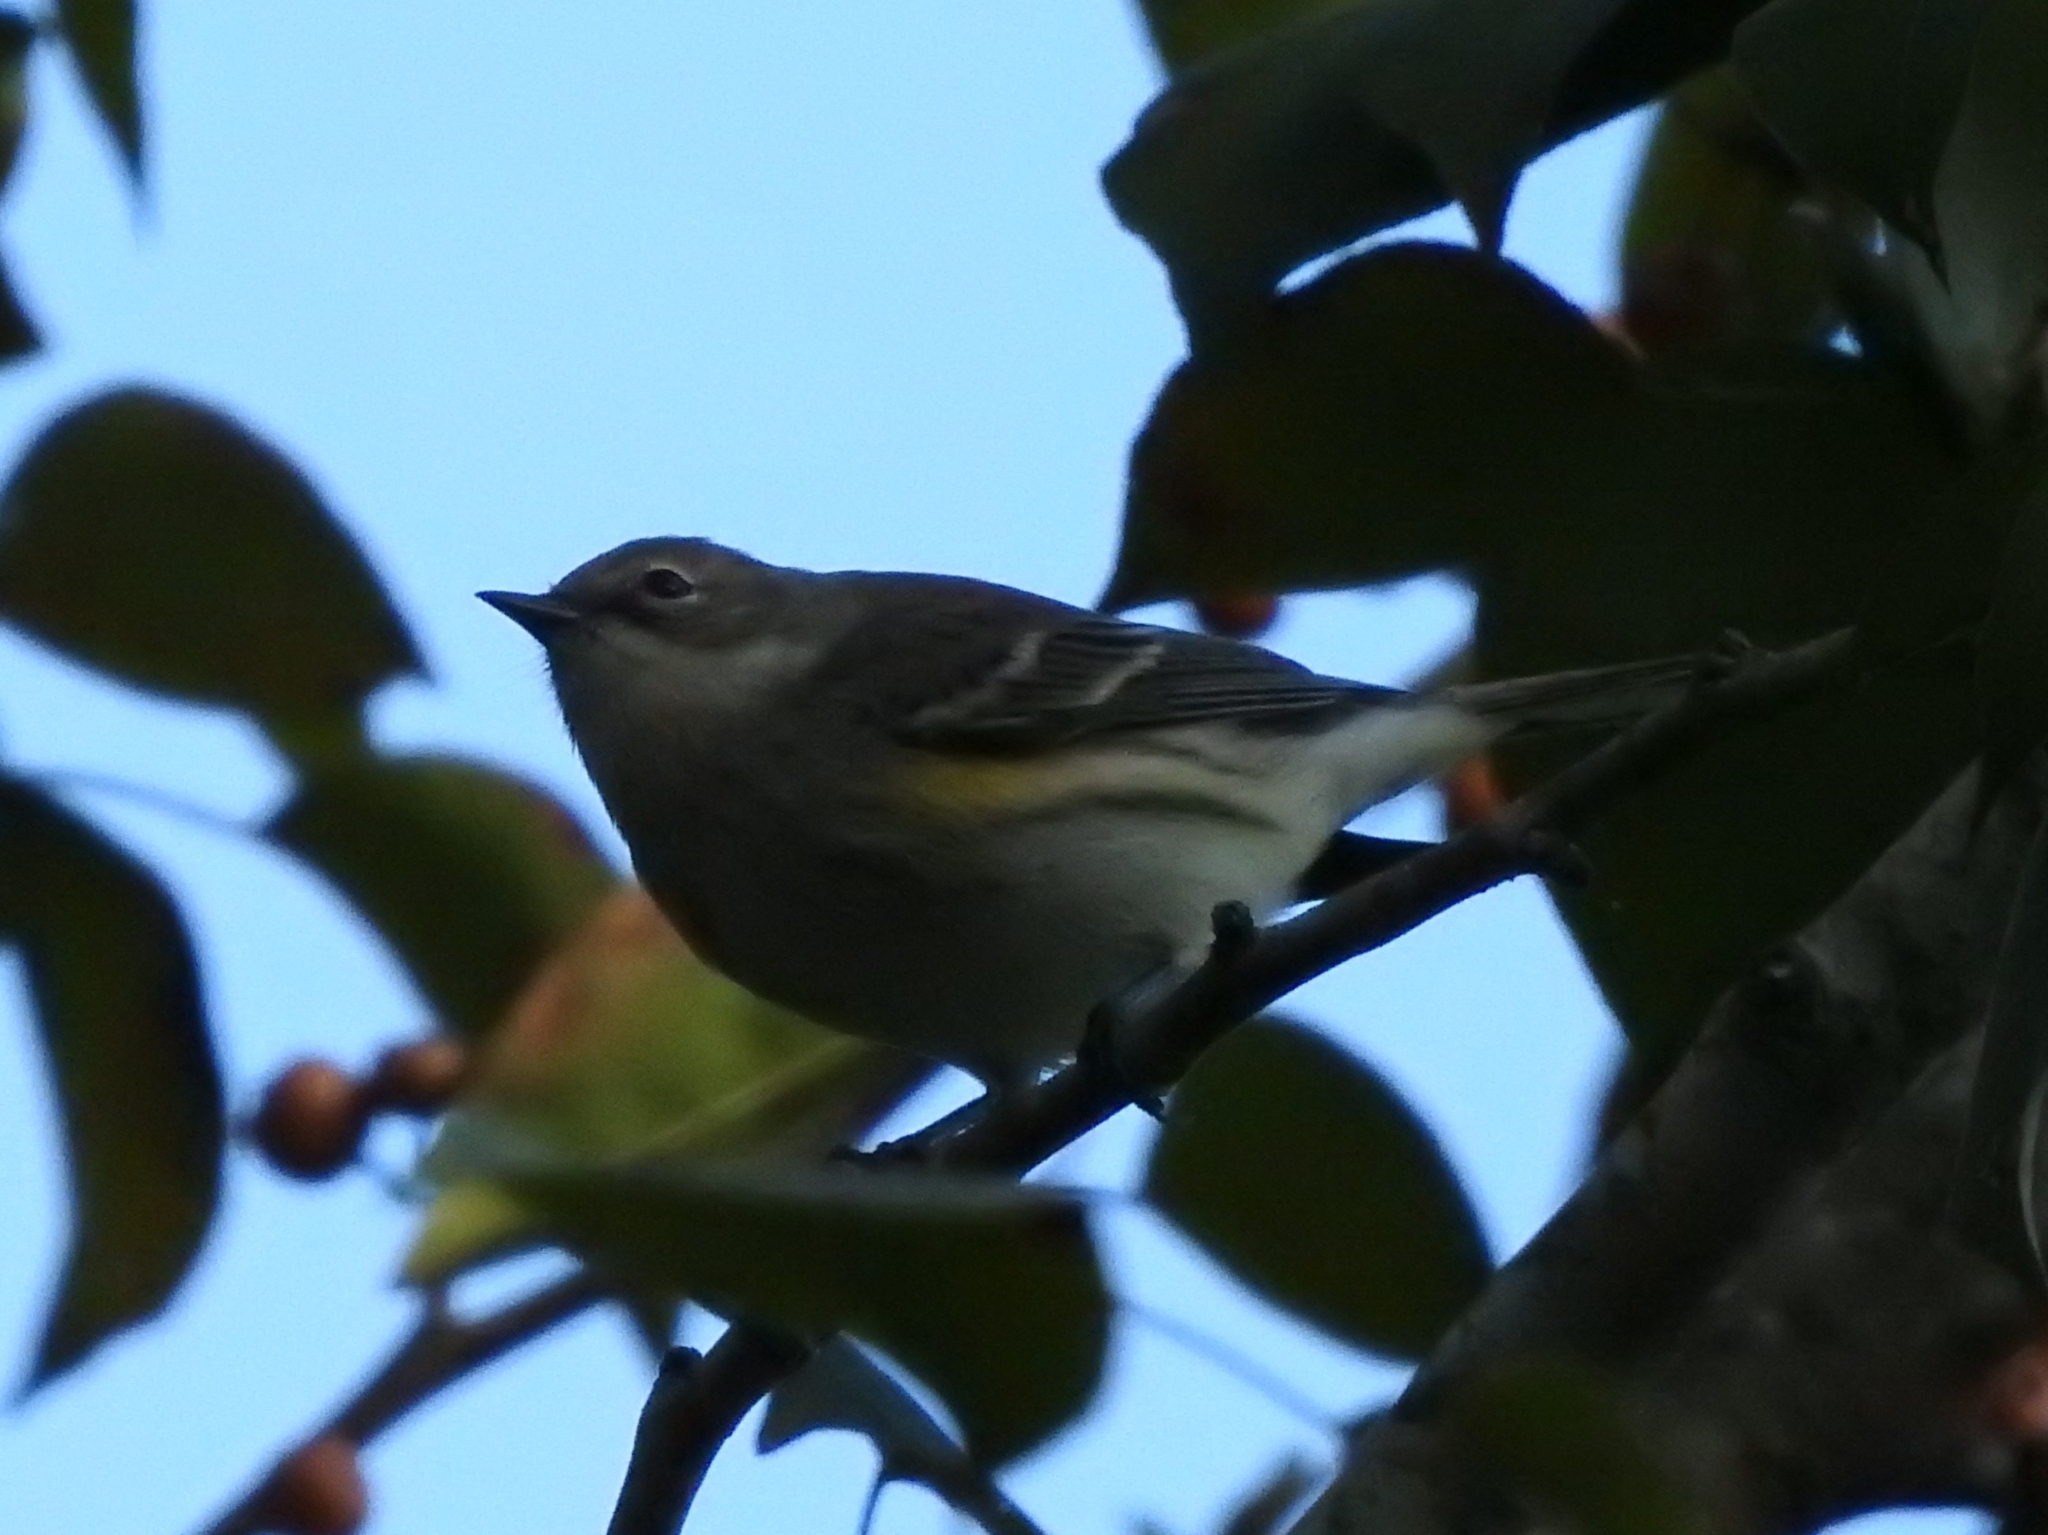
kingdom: Animalia
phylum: Chordata
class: Aves
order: Passeriformes
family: Parulidae
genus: Setophaga
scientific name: Setophaga coronata
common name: Myrtle warbler
